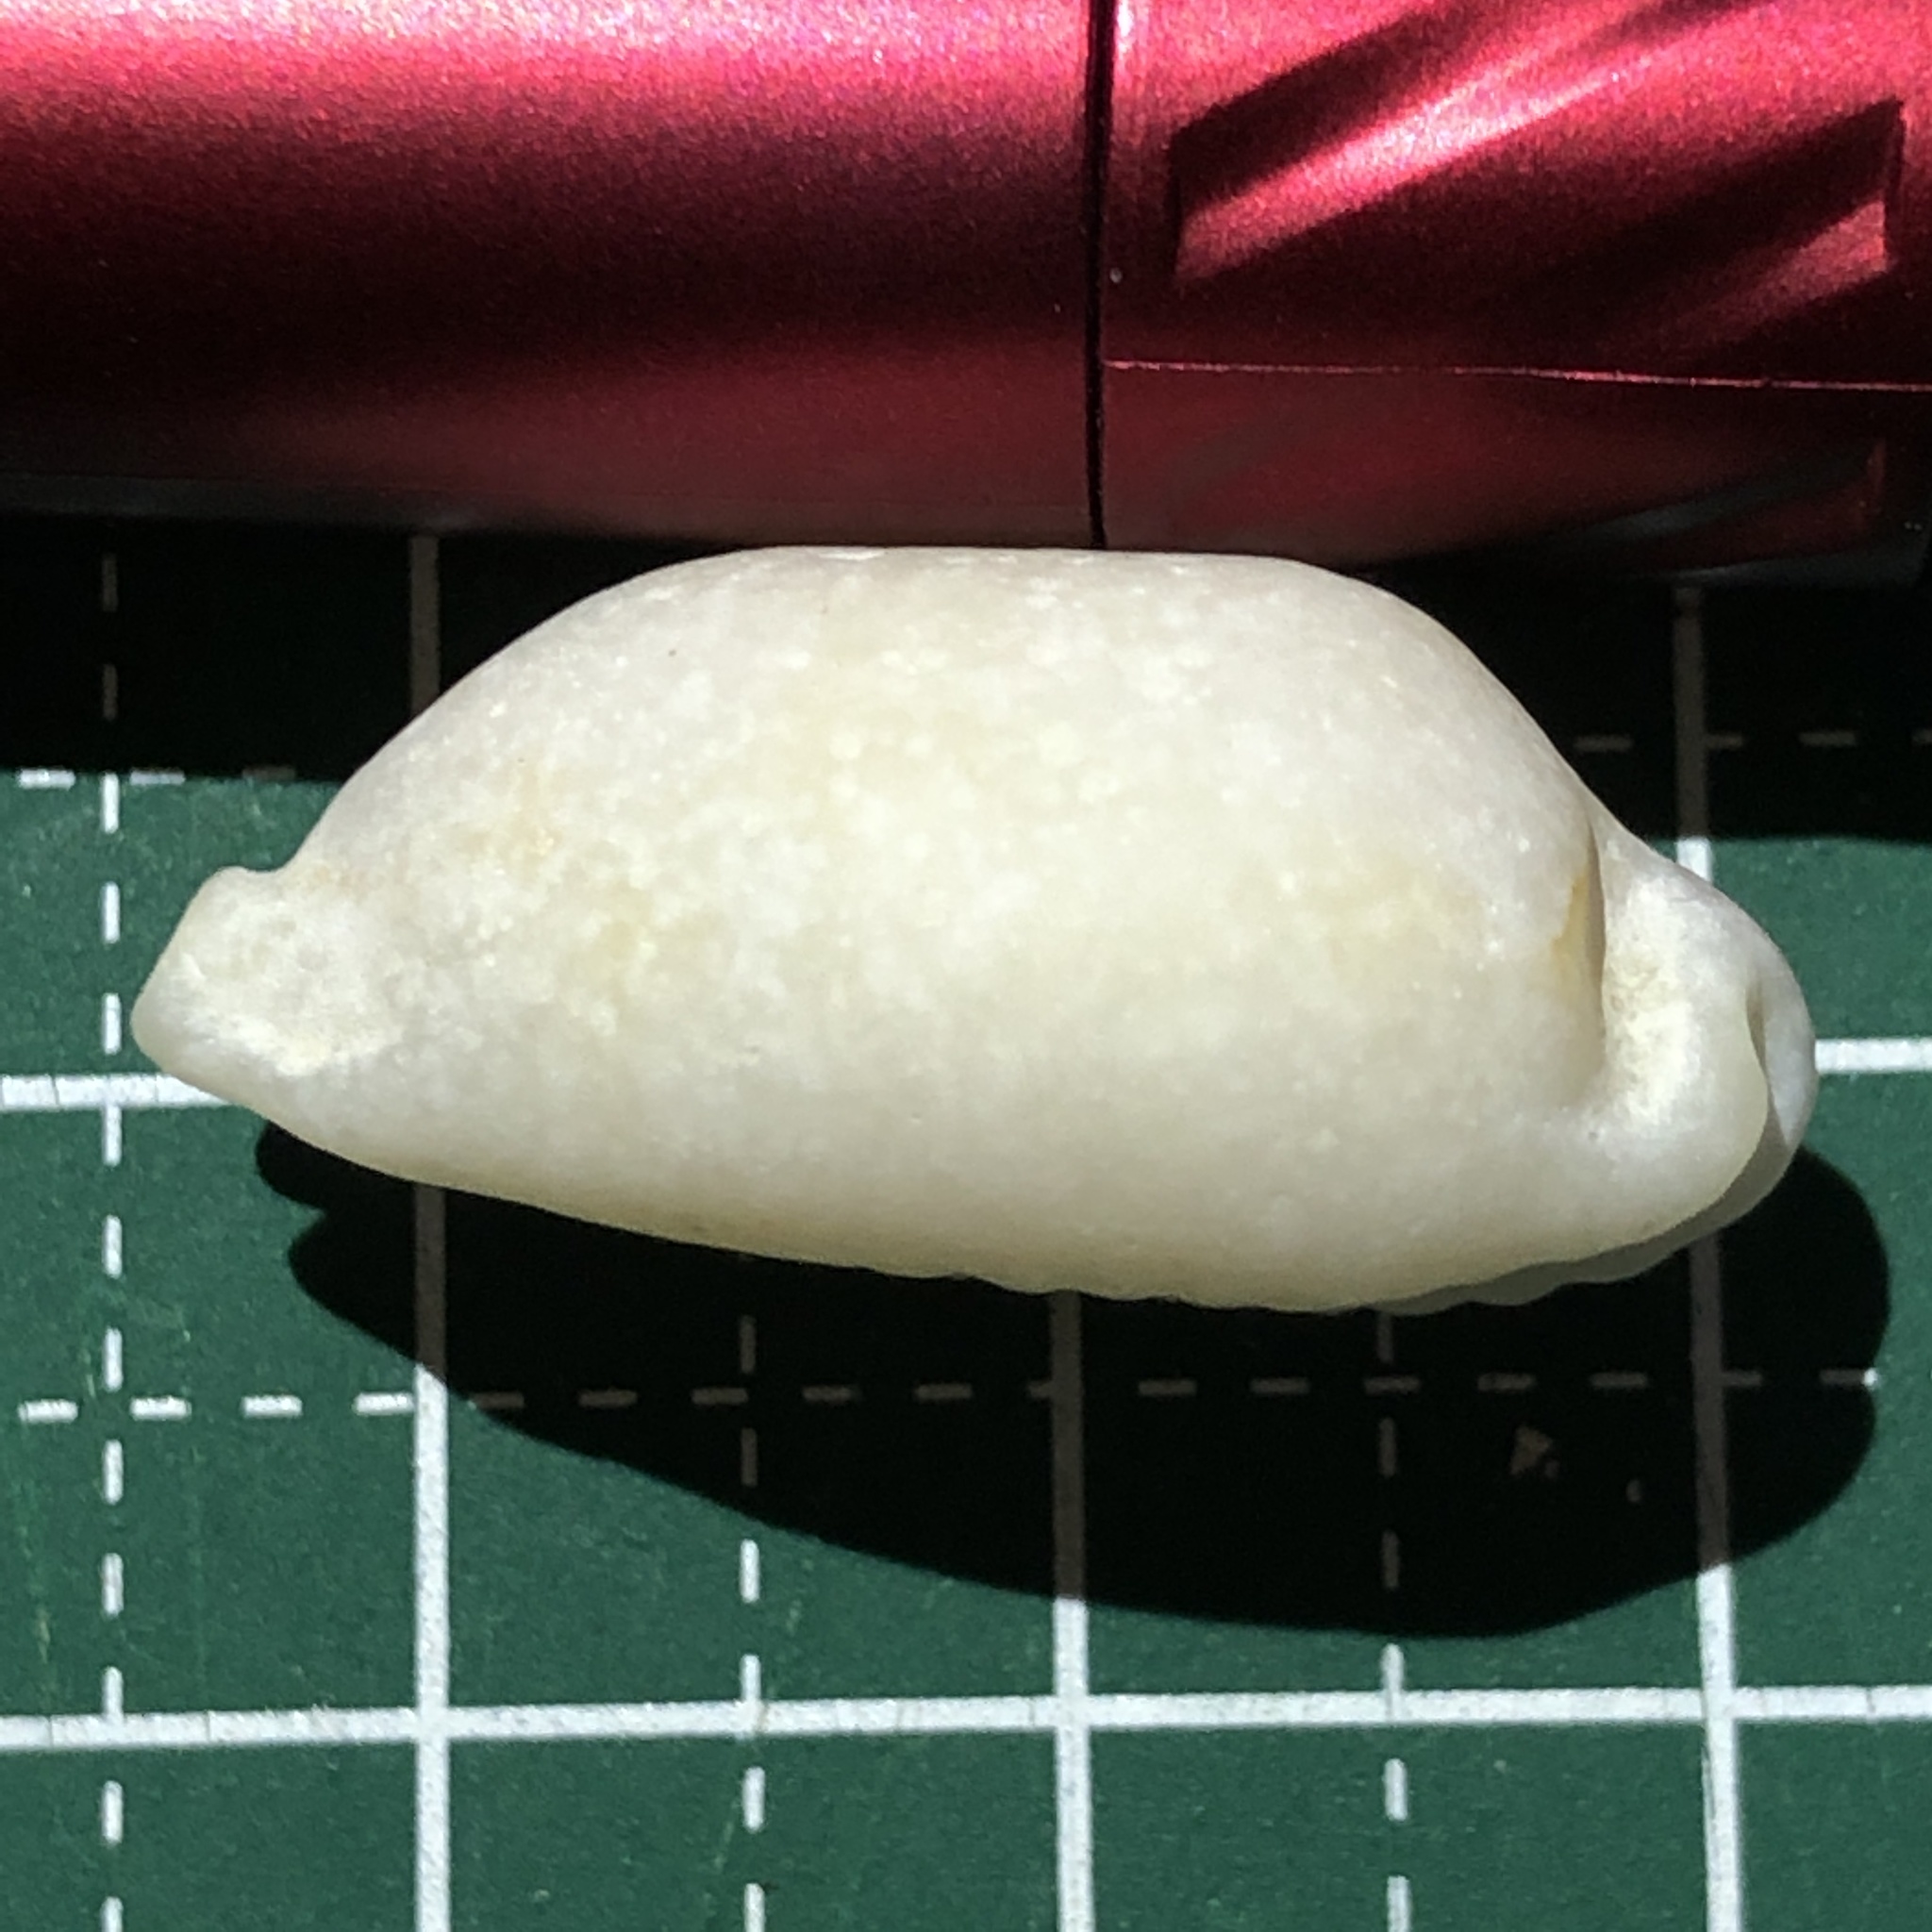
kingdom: Animalia
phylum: Mollusca
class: Gastropoda
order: Littorinimorpha
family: Cypraeidae
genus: Bistolida
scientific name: Bistolida stolida
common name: Stolid cowrie
